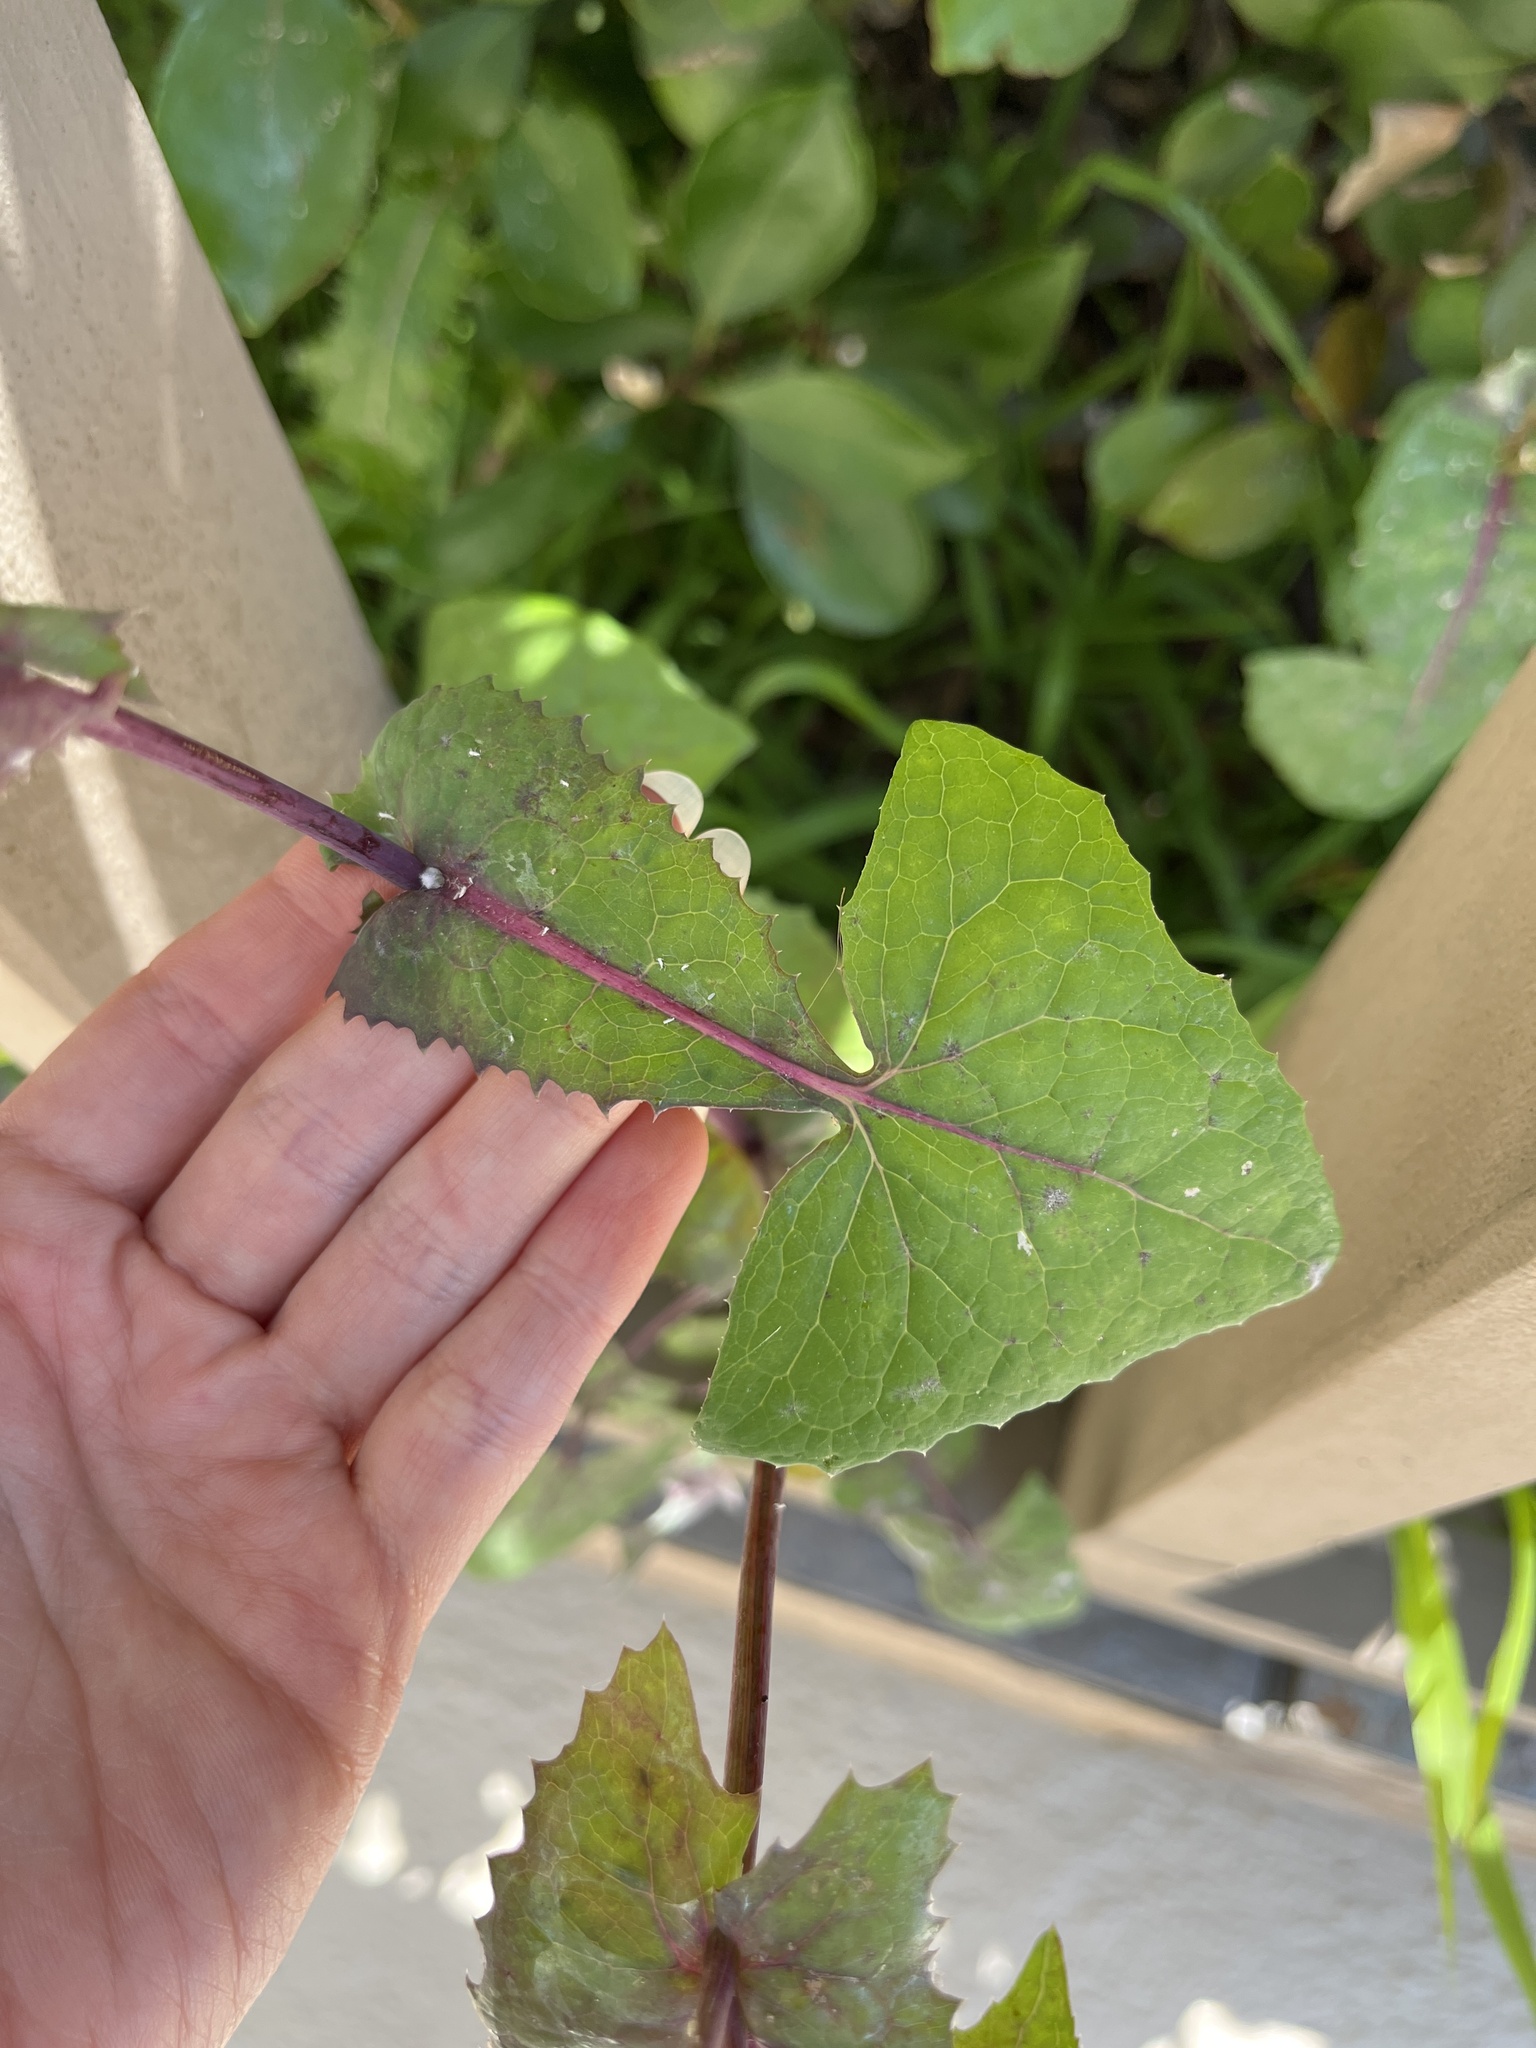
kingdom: Plantae
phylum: Tracheophyta
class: Magnoliopsida
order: Asterales
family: Asteraceae
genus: Sonchus
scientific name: Sonchus oleraceus
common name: Common sowthistle
